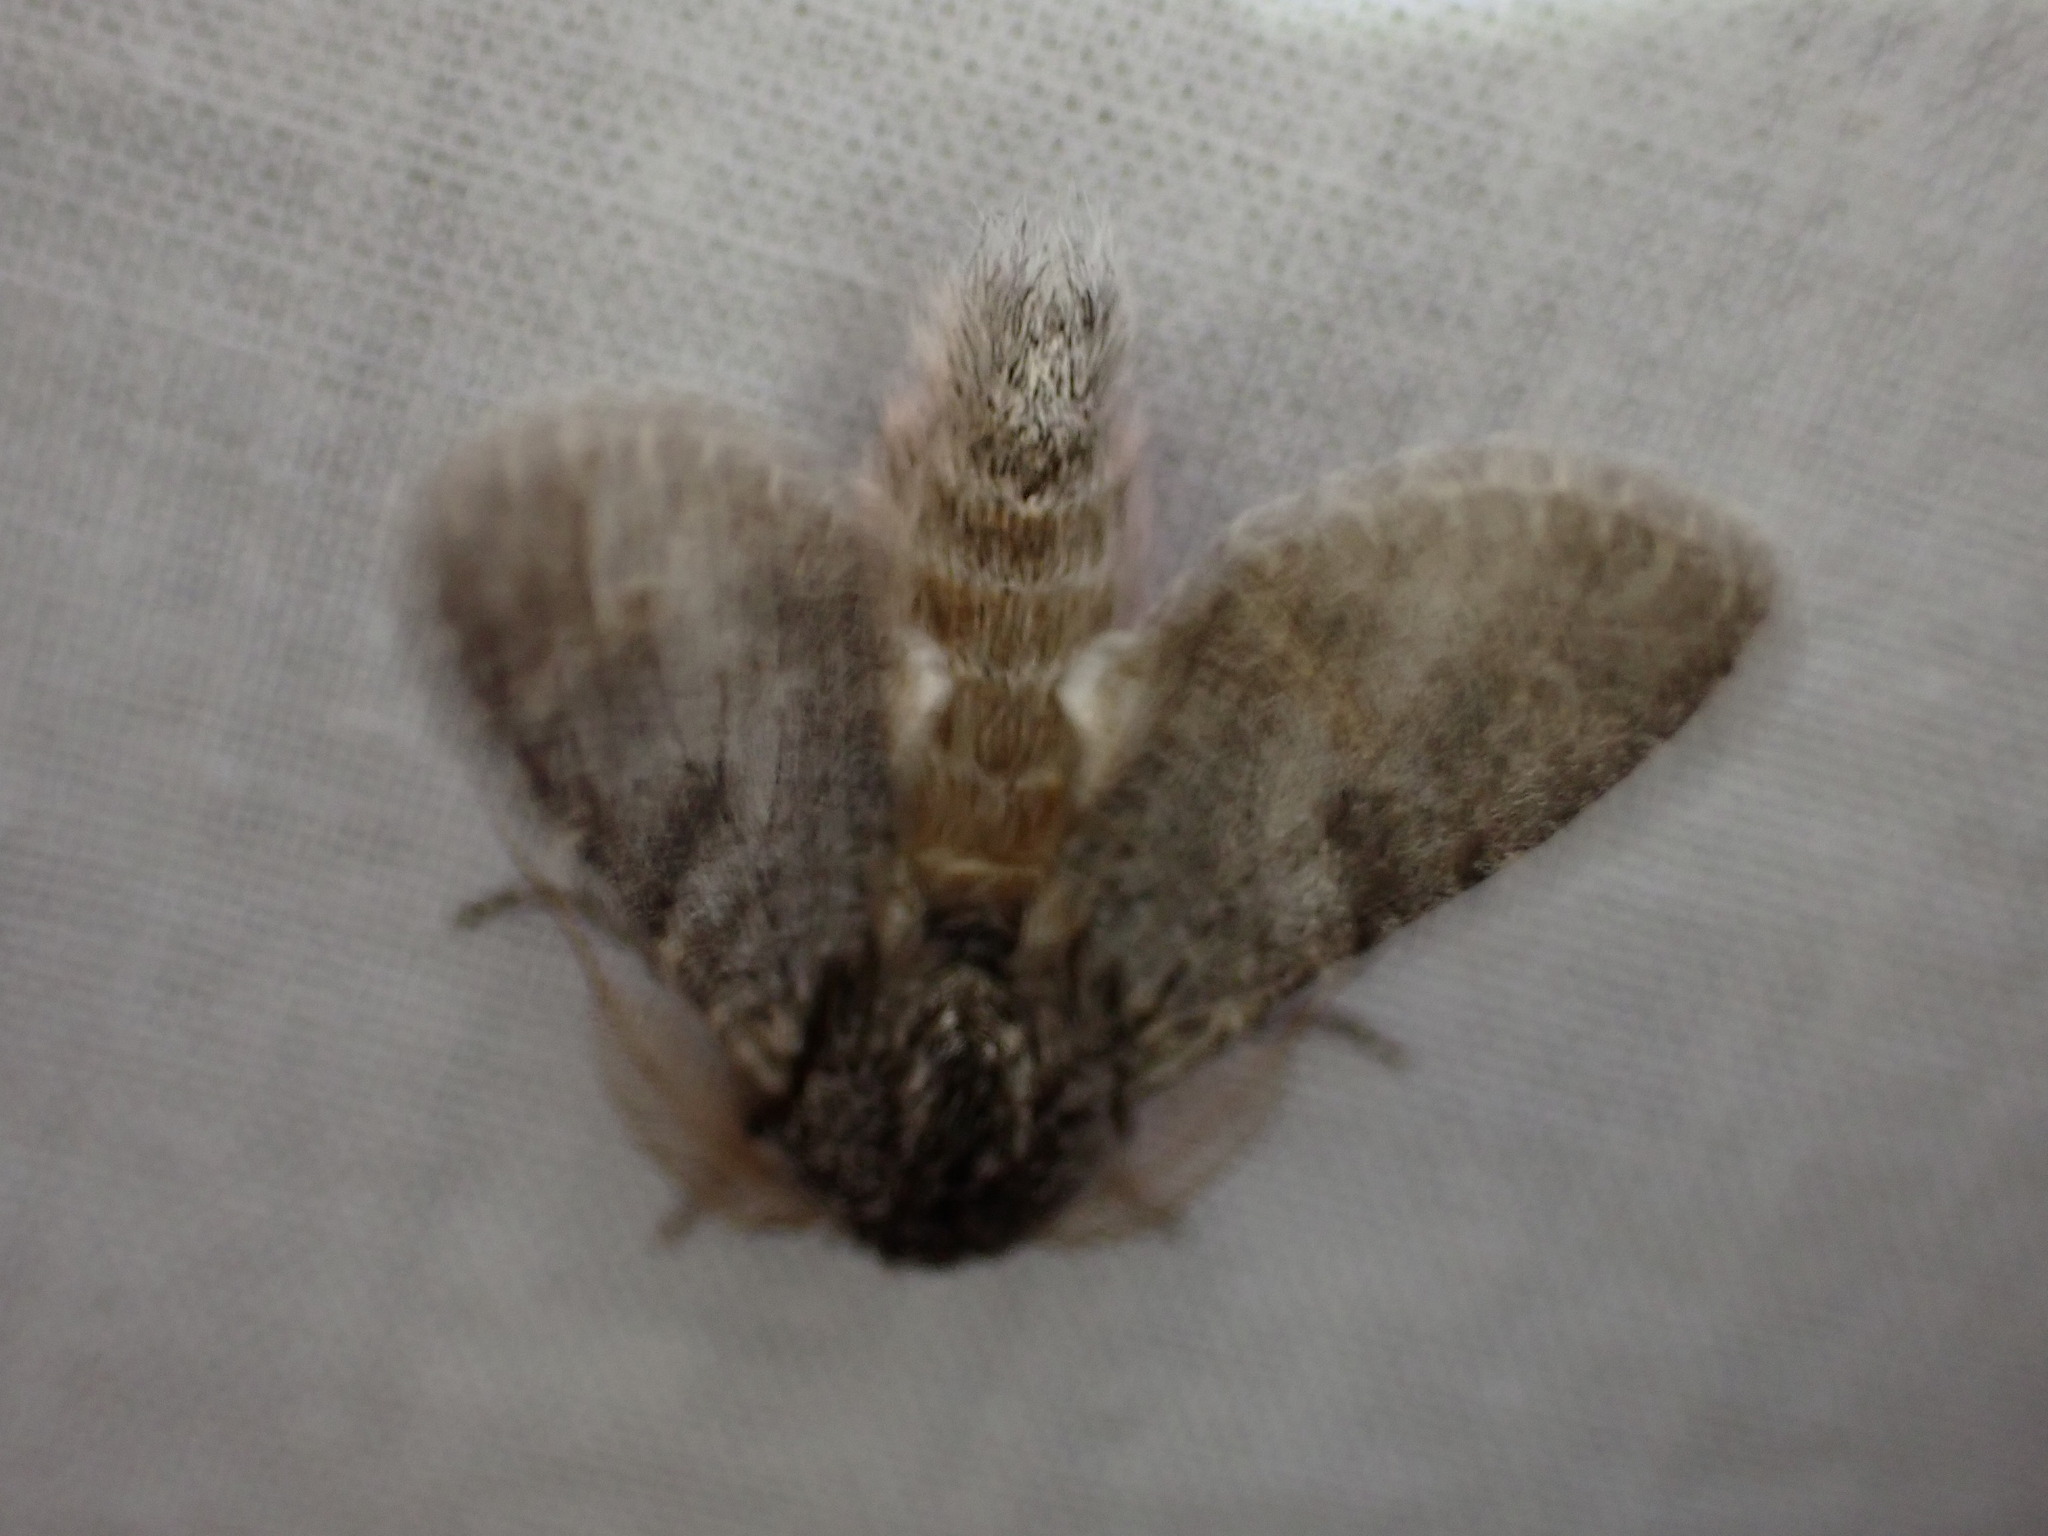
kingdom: Animalia
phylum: Arthropoda
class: Insecta
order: Lepidoptera
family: Notodontidae
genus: Dicranura
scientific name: Dicranura ulmi
